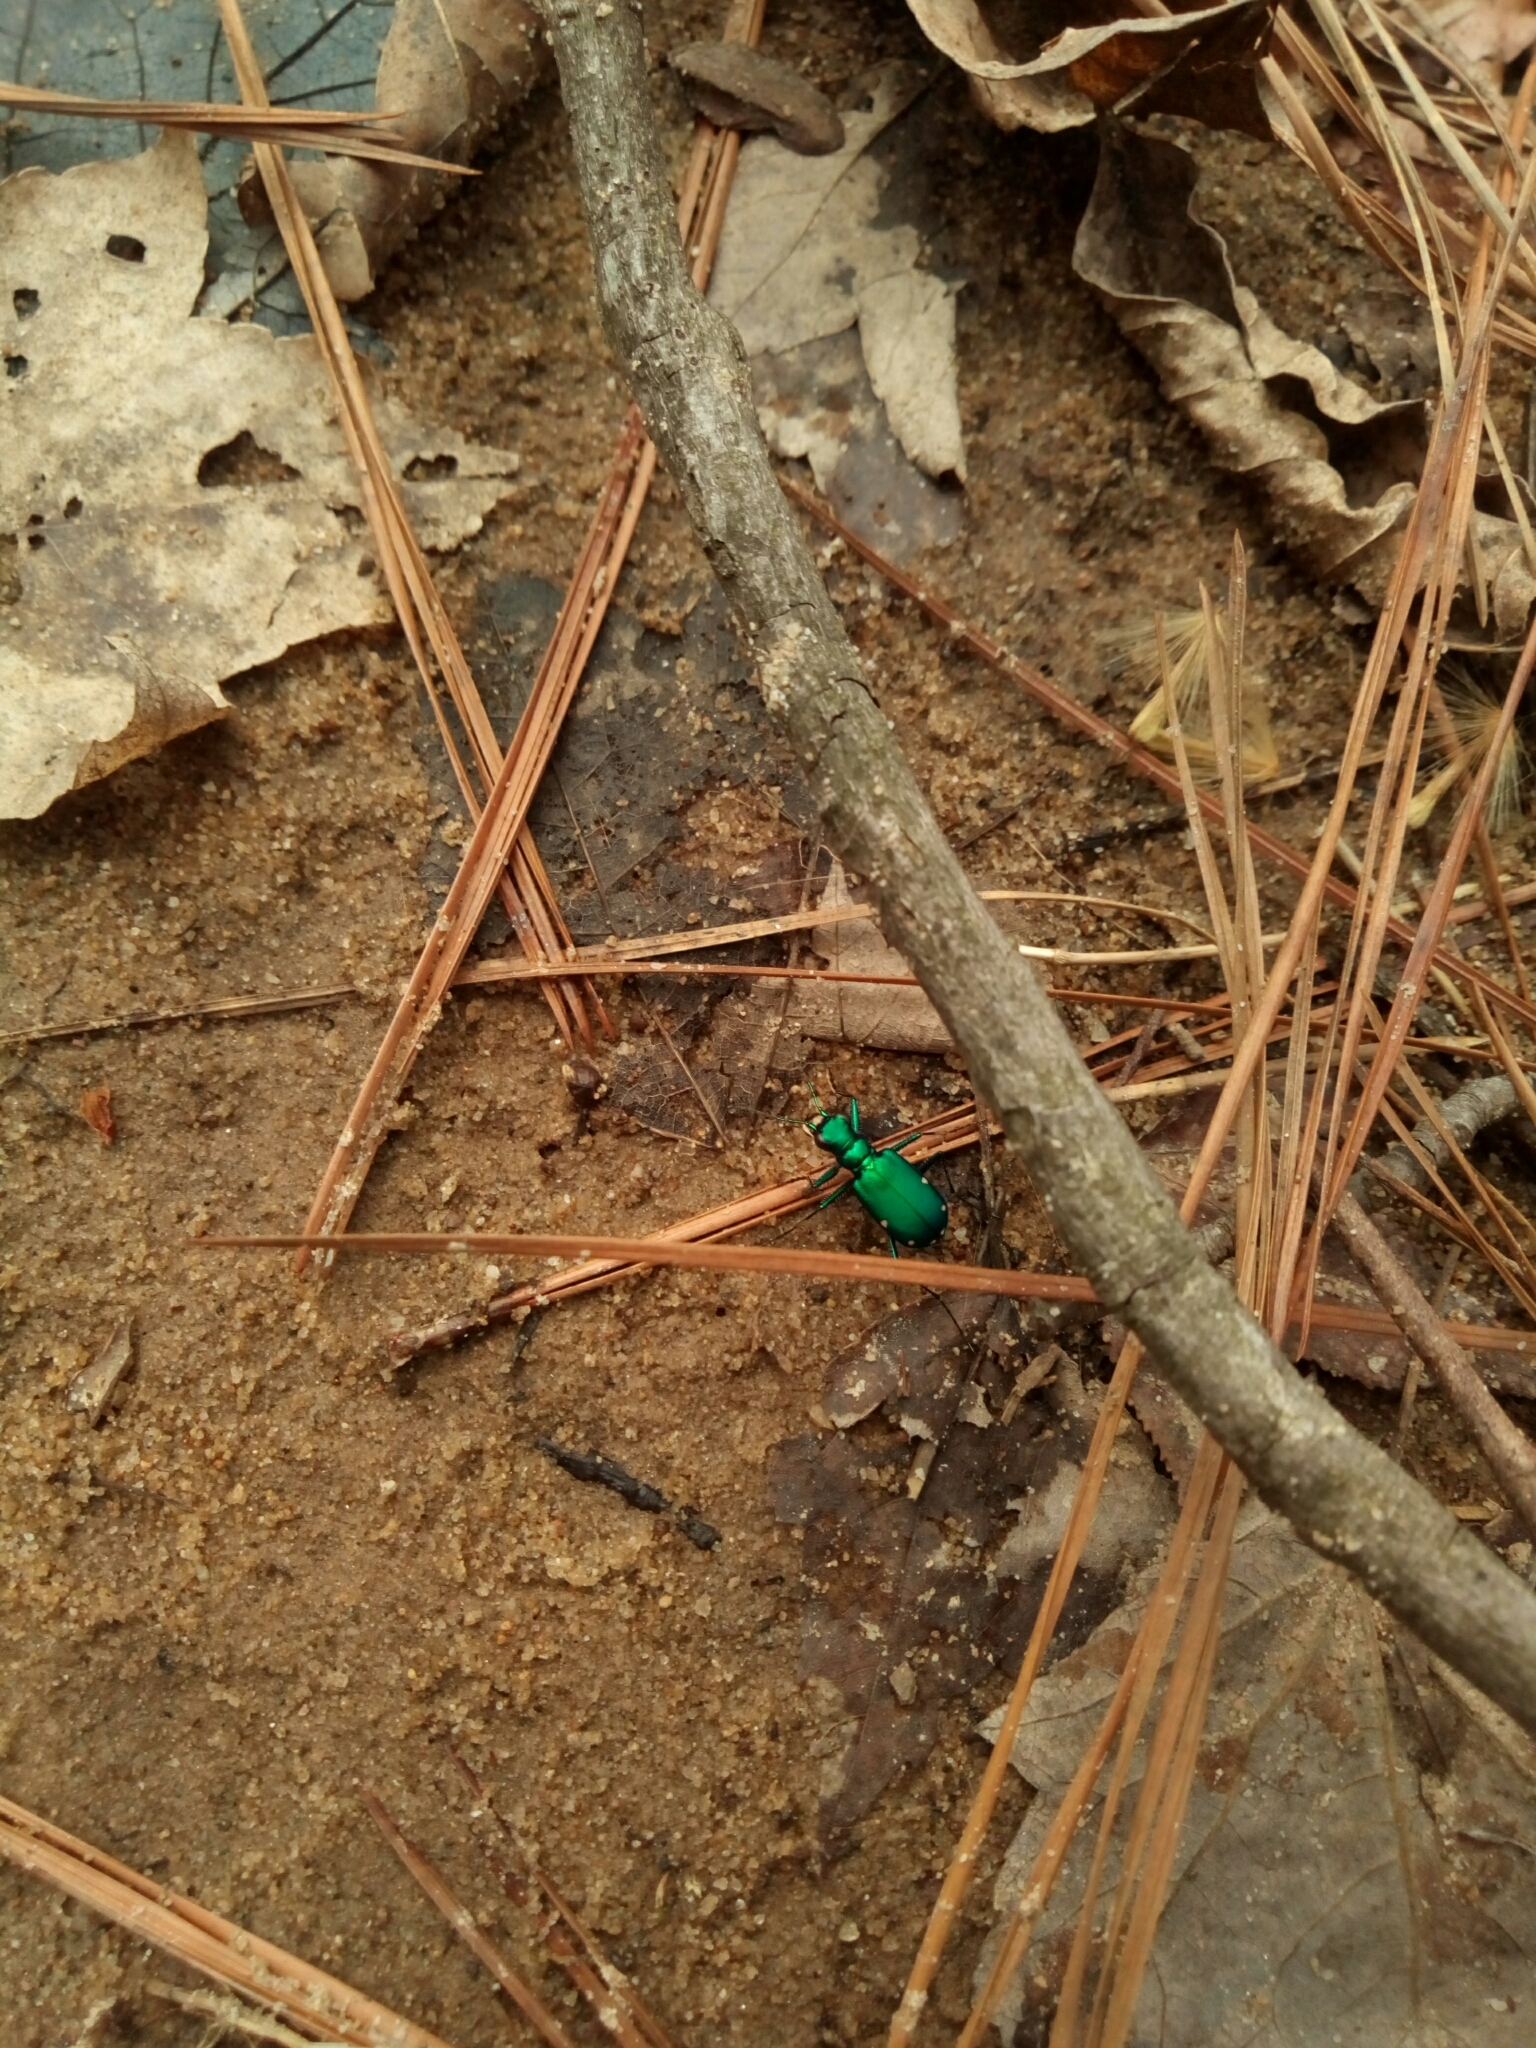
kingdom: Animalia
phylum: Arthropoda
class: Insecta
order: Coleoptera
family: Carabidae
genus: Cicindela
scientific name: Cicindela sexguttata
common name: Six-spotted tiger beetle
